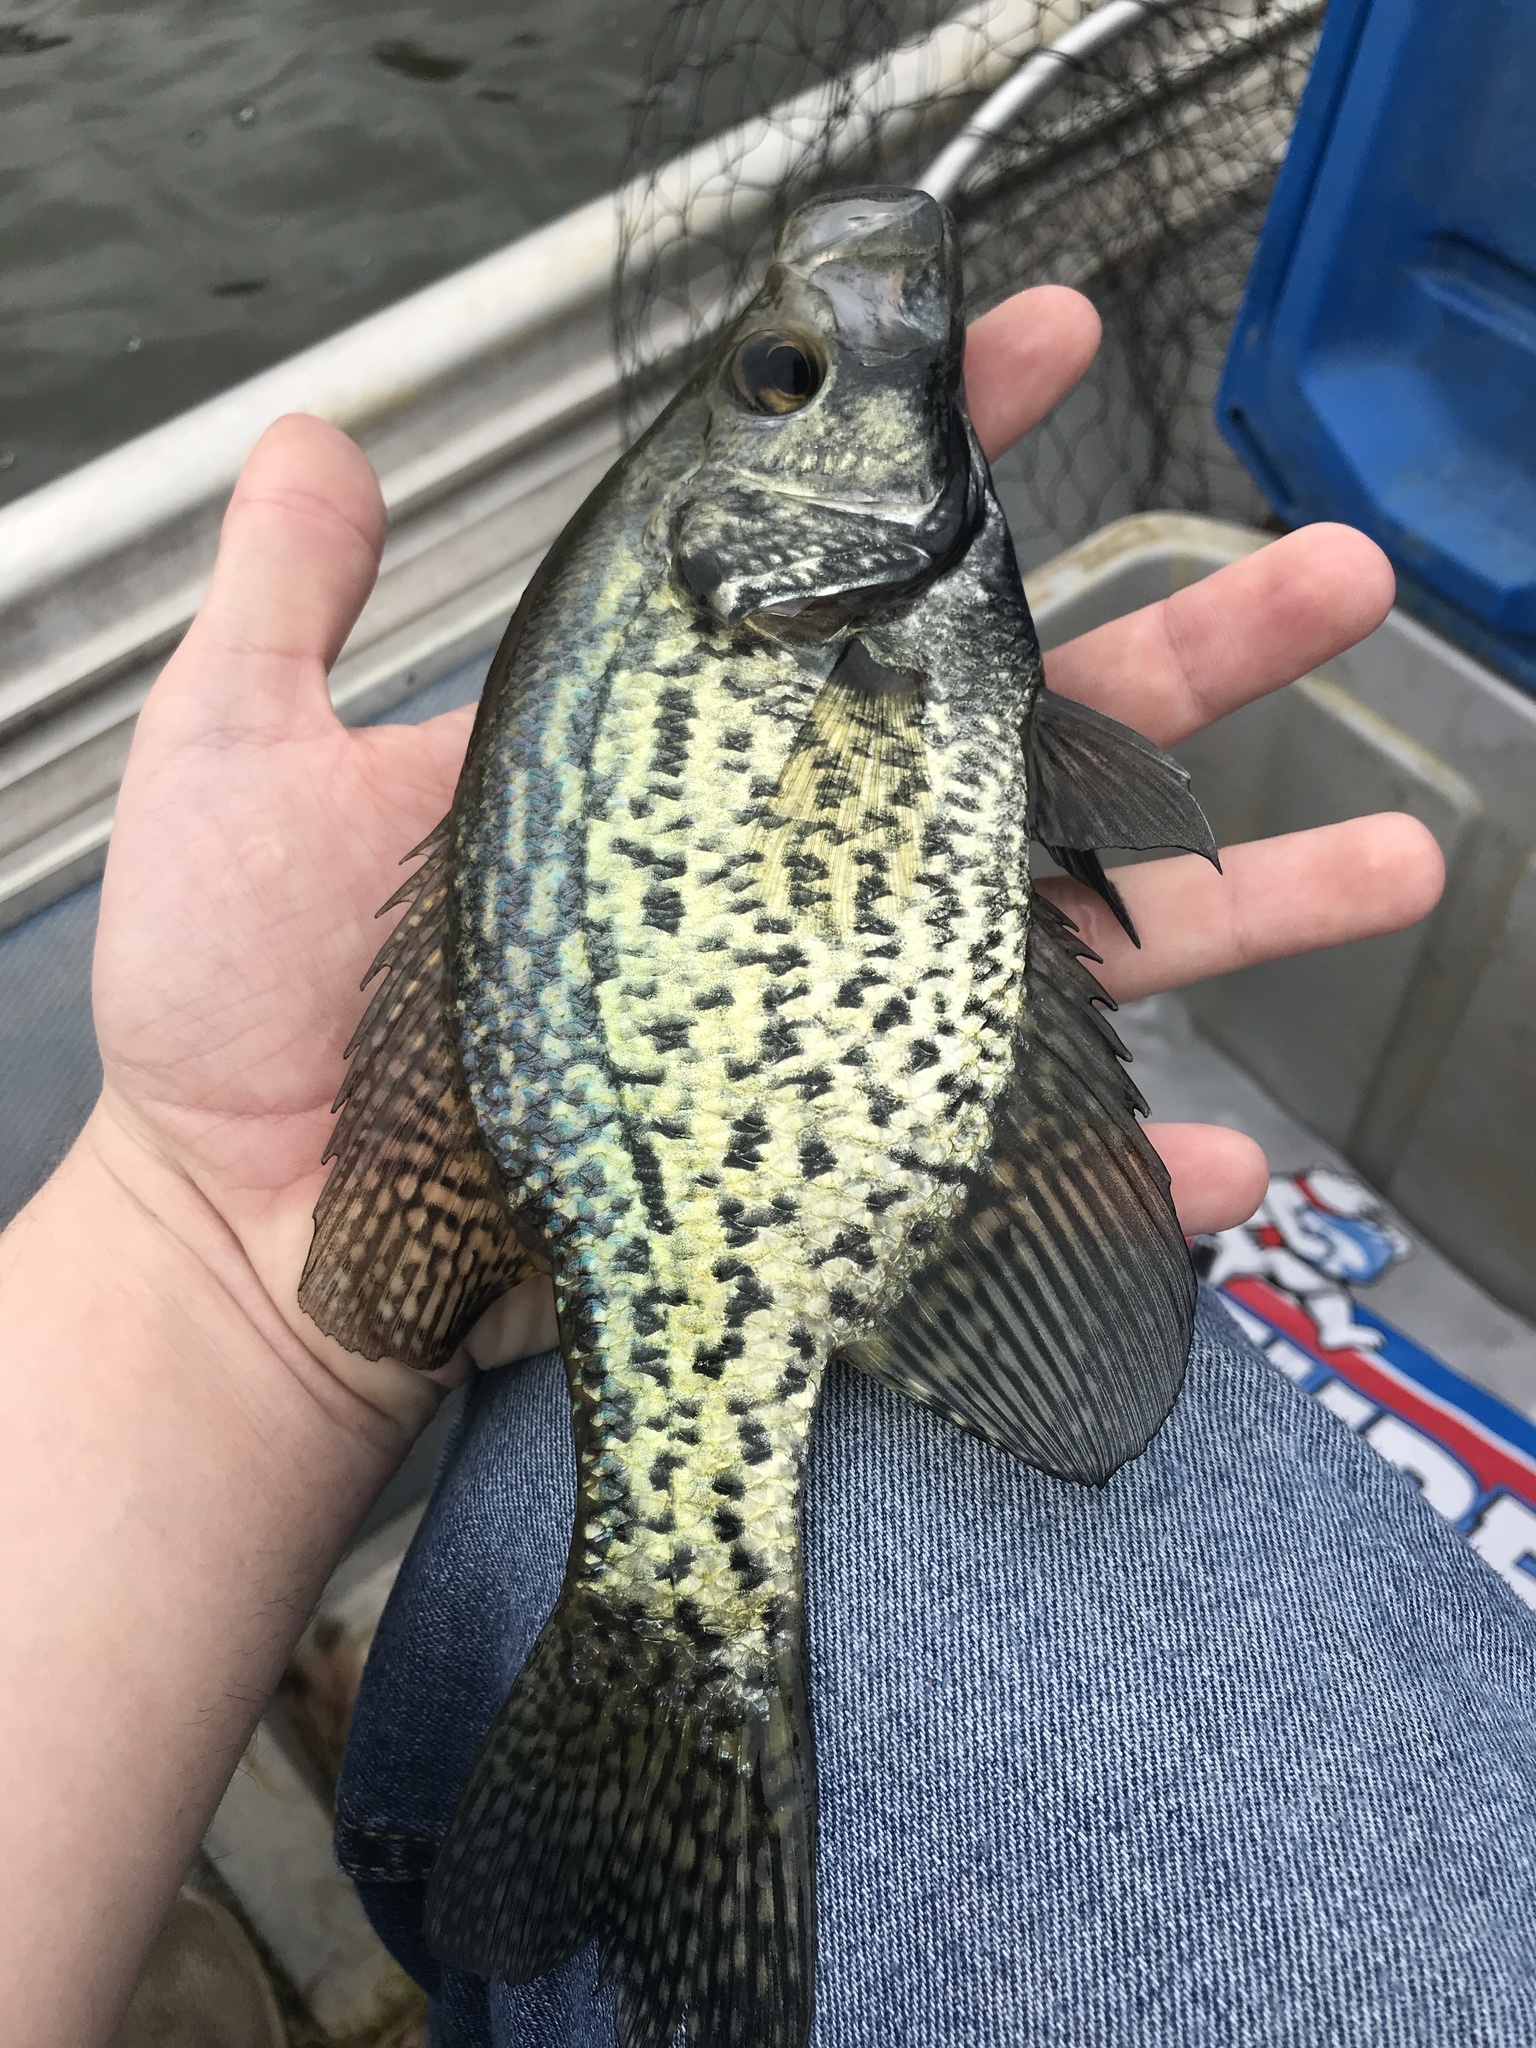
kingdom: Animalia
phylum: Chordata
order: Perciformes
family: Centrarchidae
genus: Pomoxis
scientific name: Pomoxis nigromaculatus
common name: Black crappie
